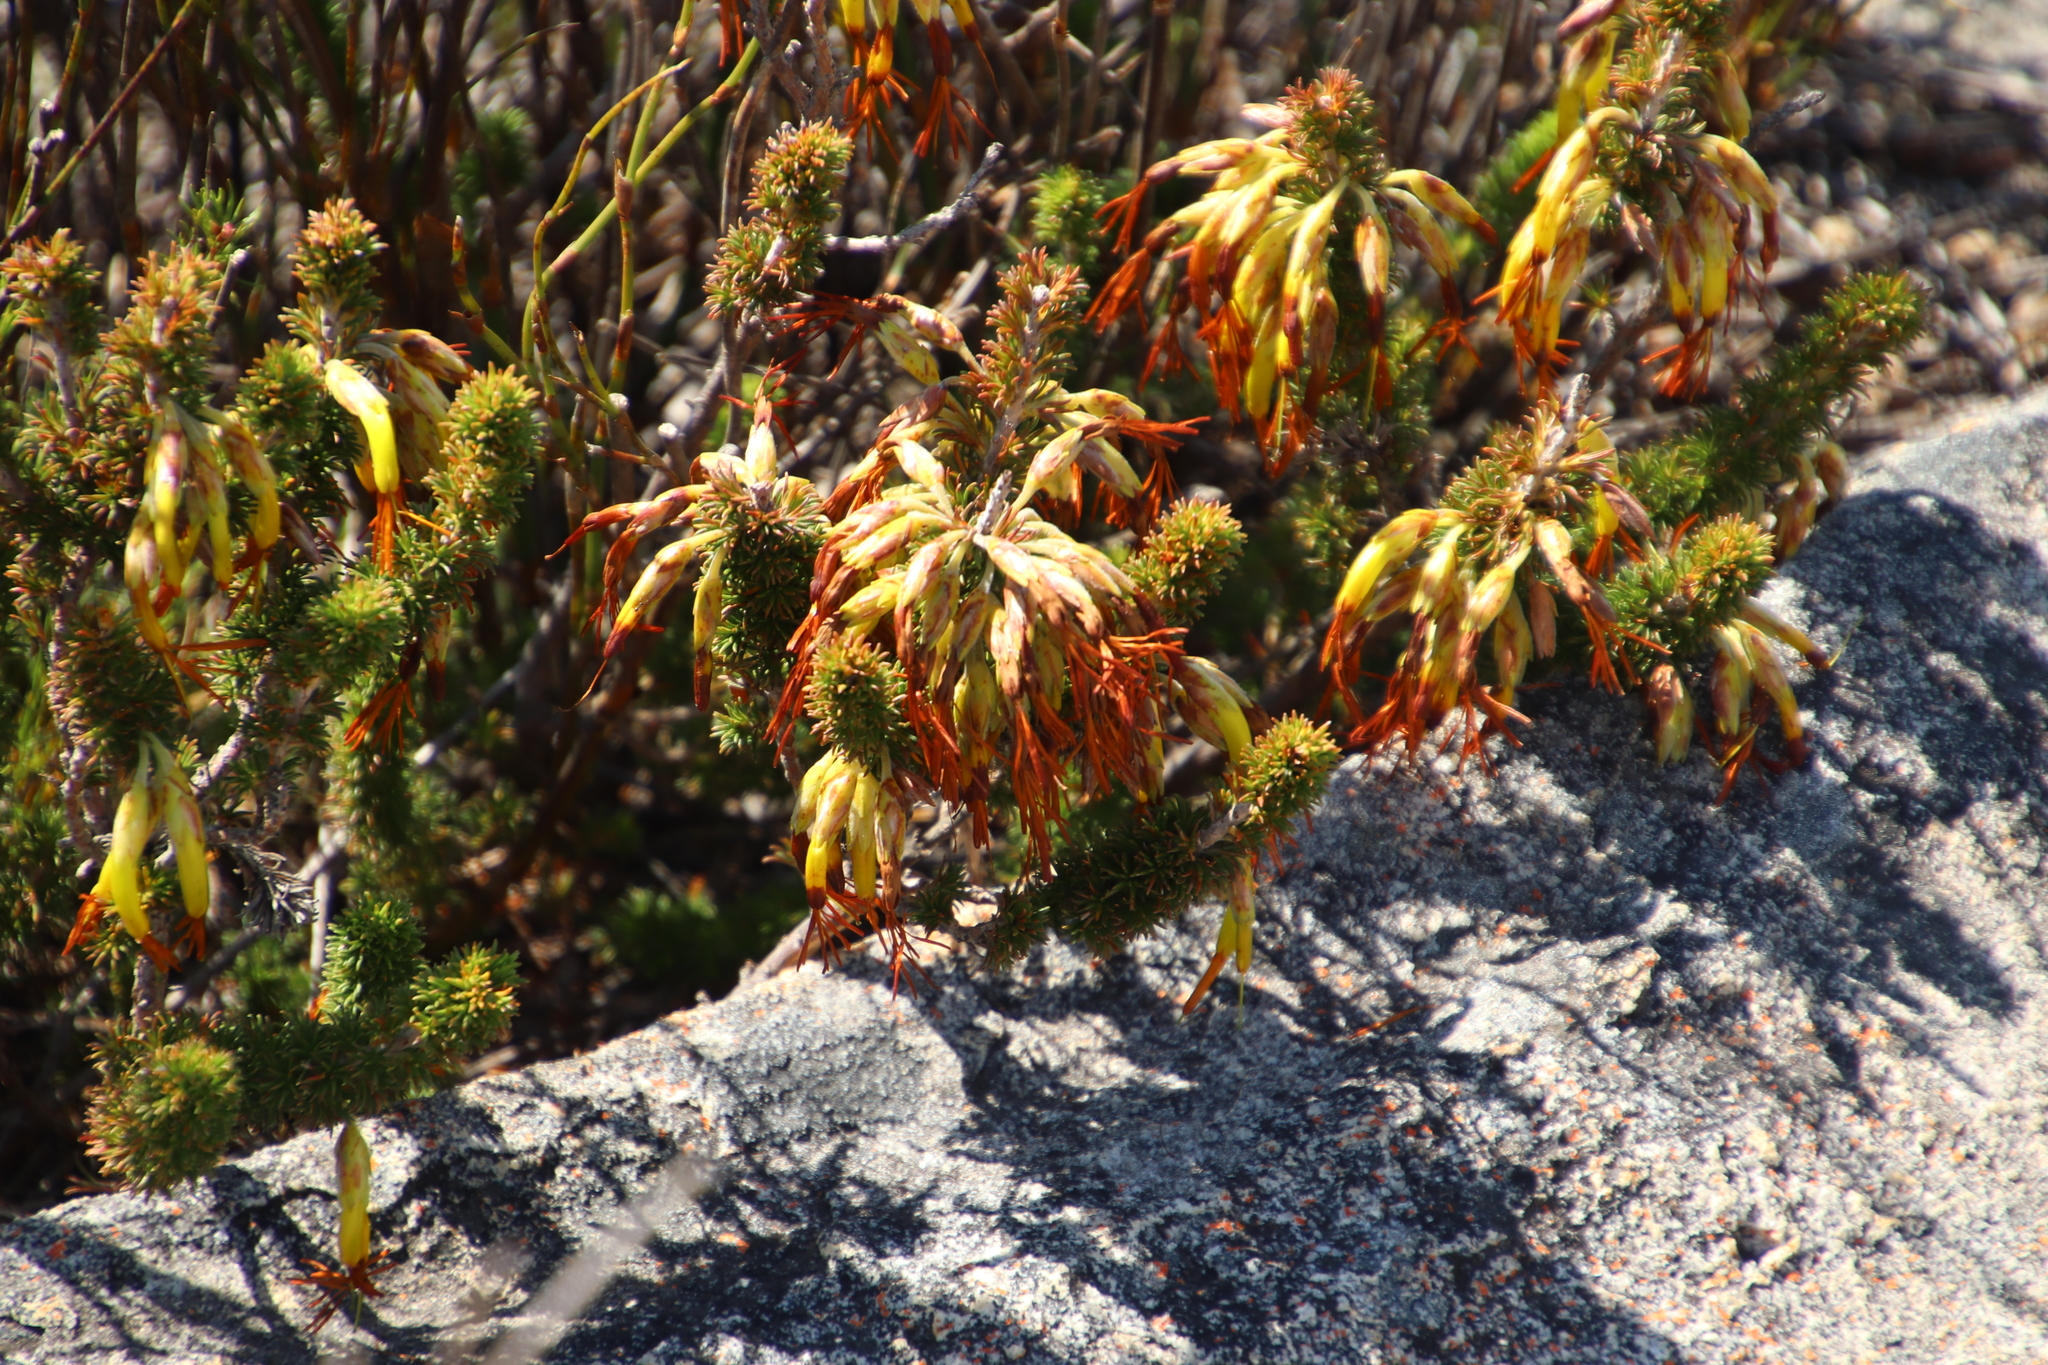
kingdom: Plantae
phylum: Tracheophyta
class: Magnoliopsida
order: Ericales
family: Ericaceae
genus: Erica
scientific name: Erica coccinea
